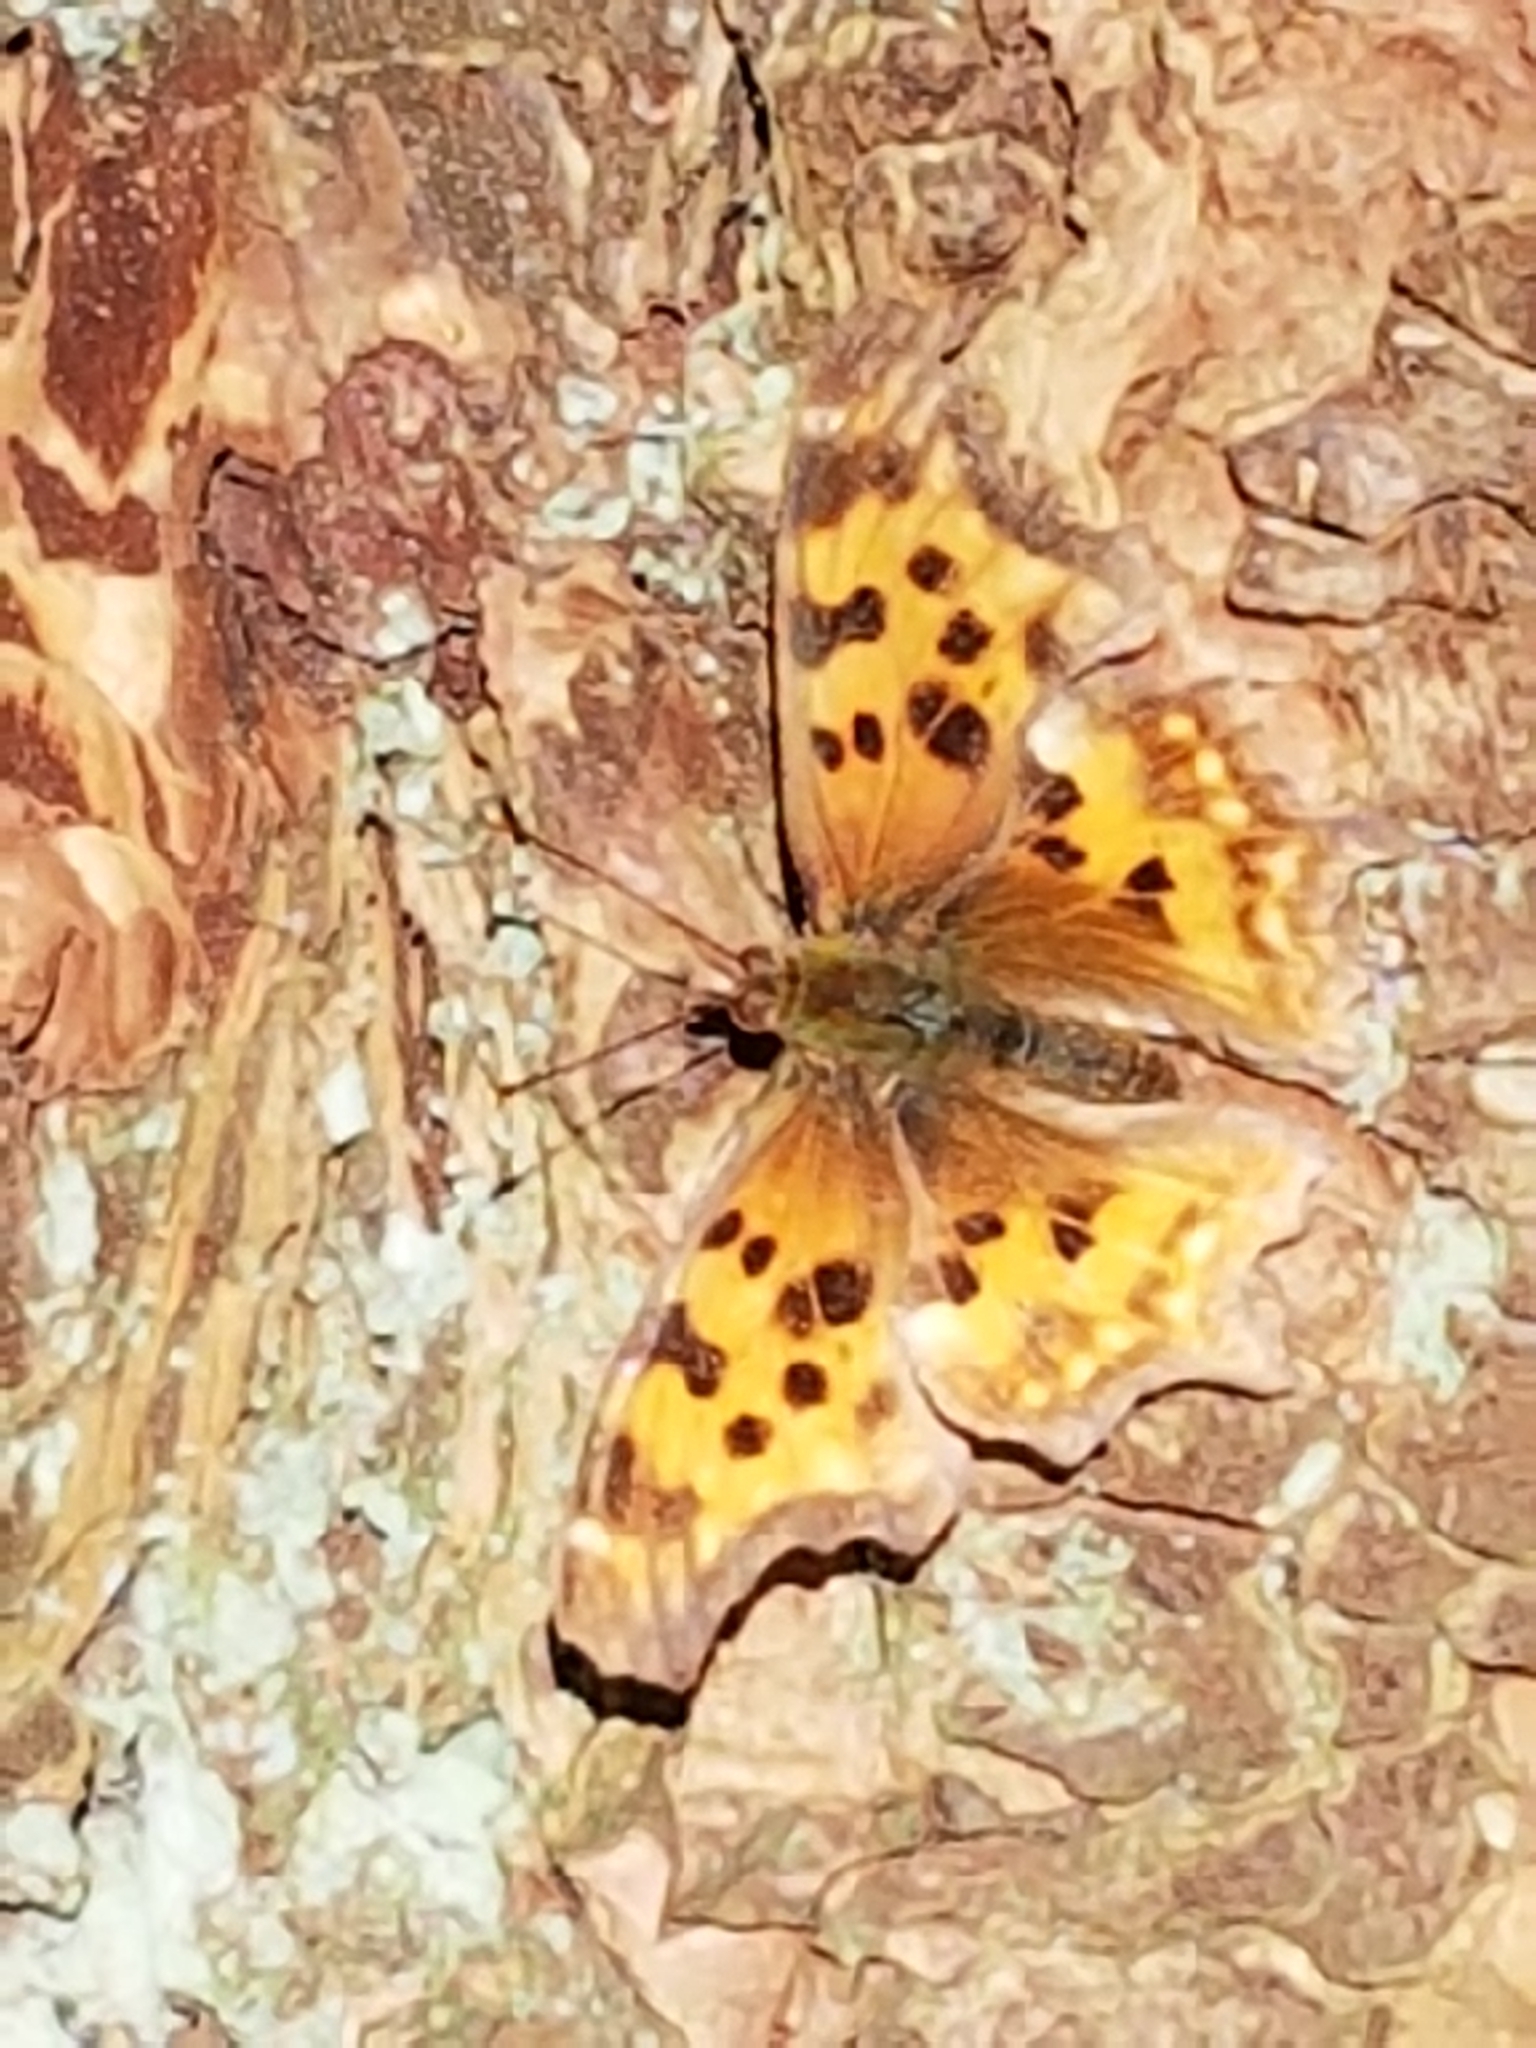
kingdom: Animalia
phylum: Arthropoda
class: Insecta
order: Lepidoptera
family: Nymphalidae
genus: Polygonia
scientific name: Polygonia satyrus
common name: Satyr angle wing
